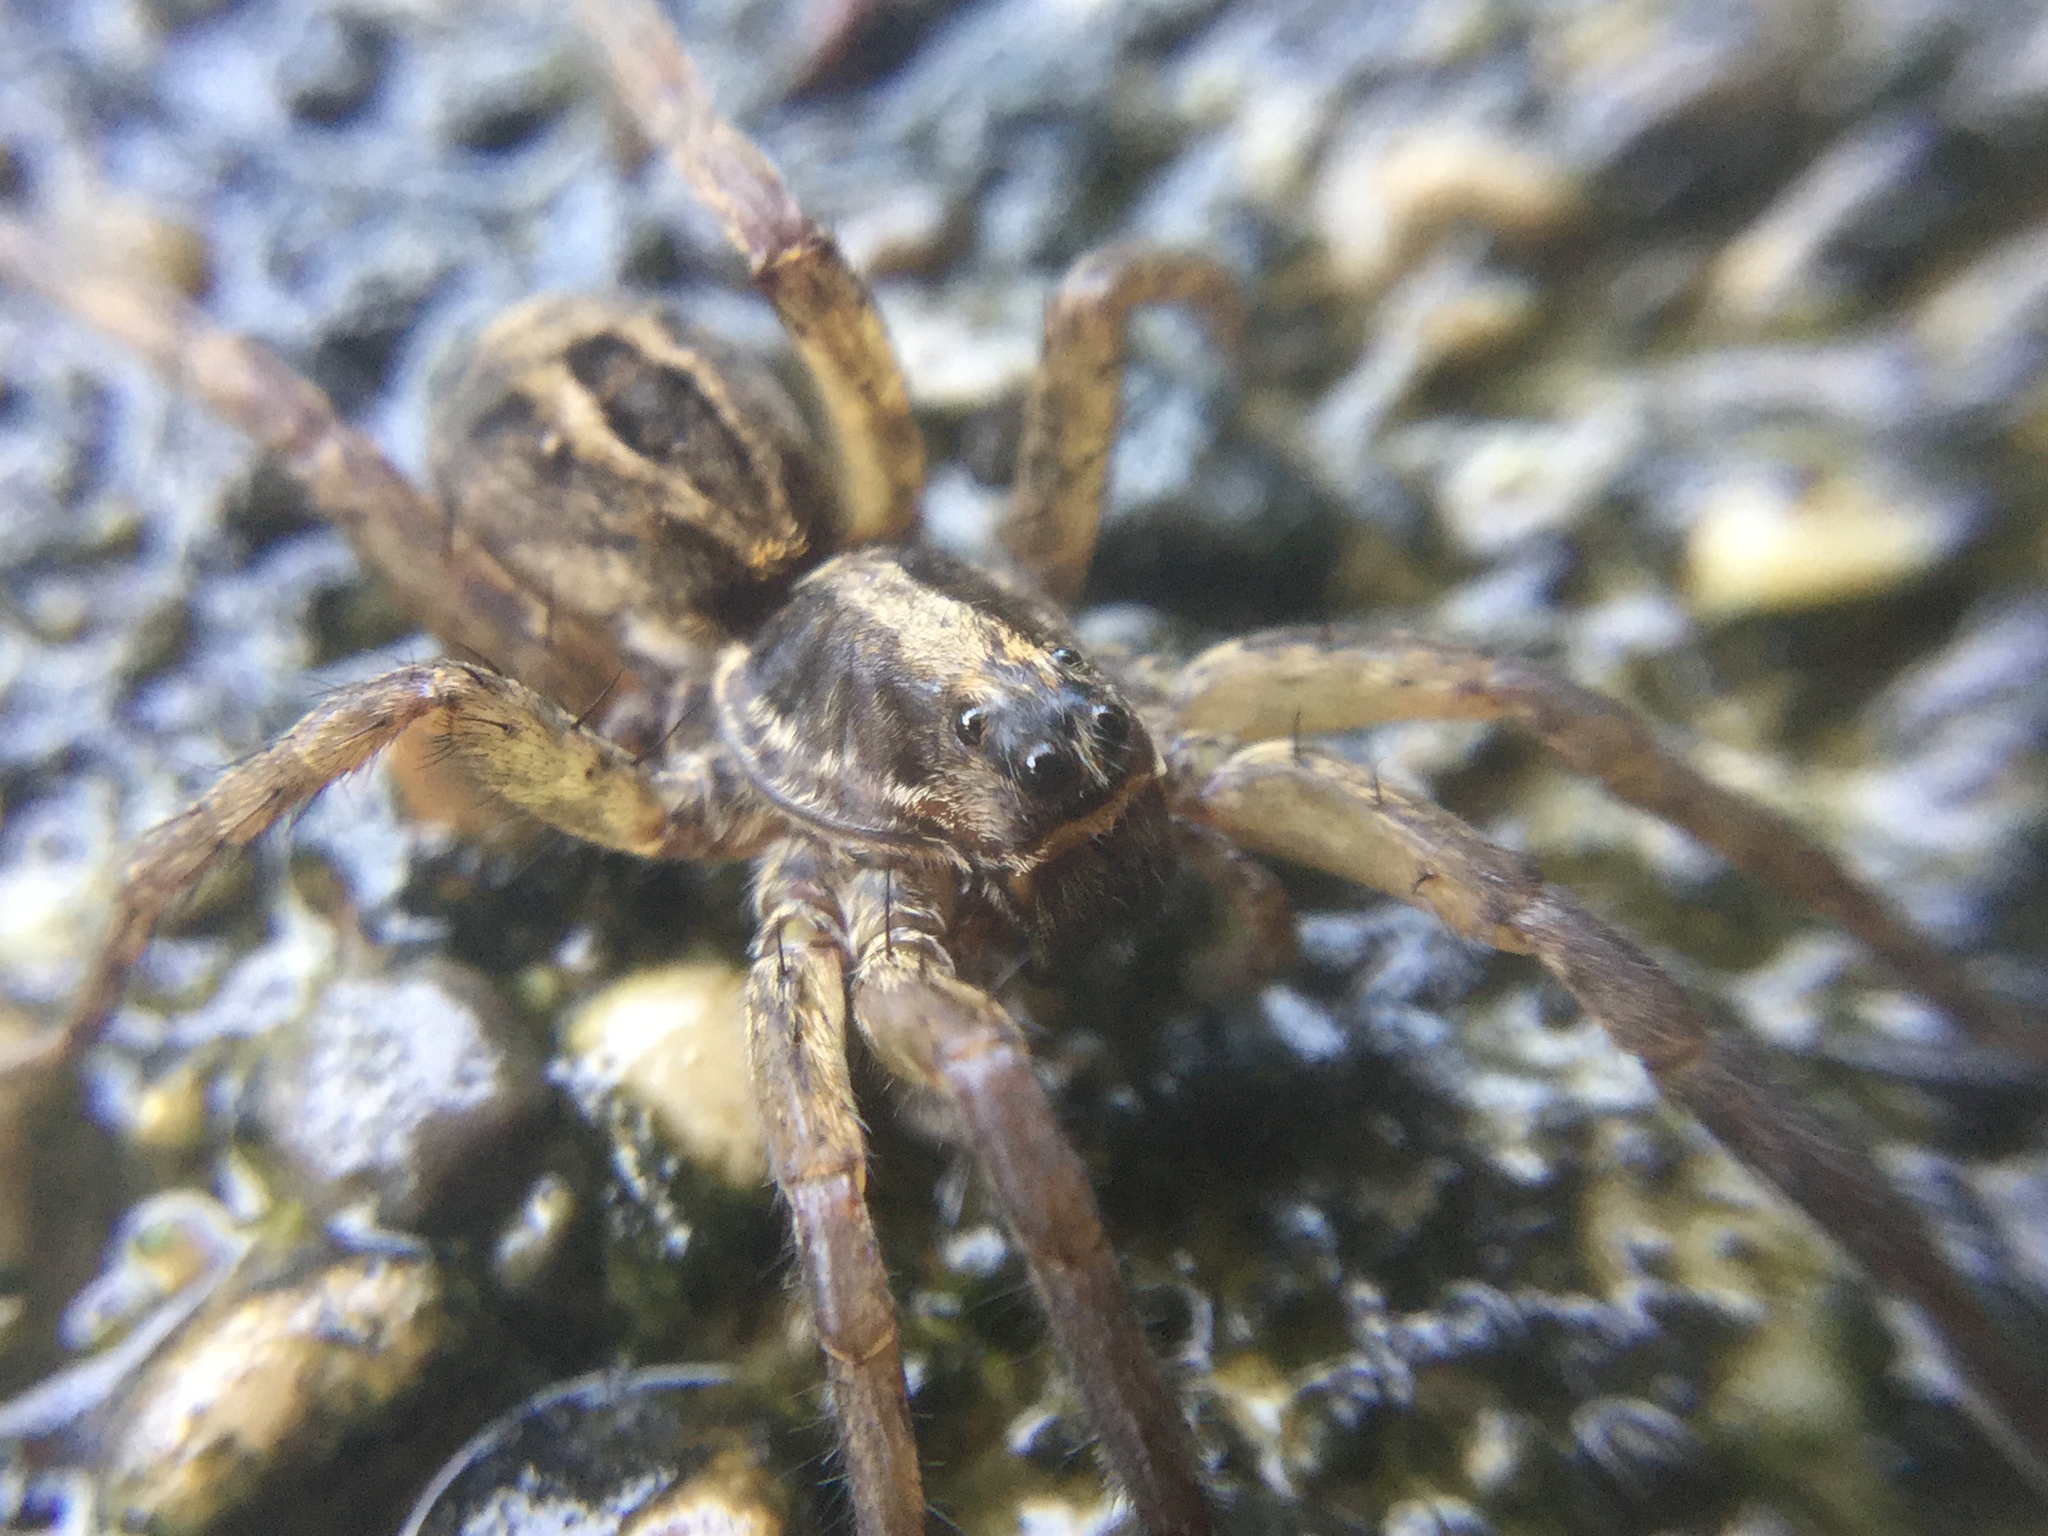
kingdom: Animalia
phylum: Arthropoda
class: Arachnida
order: Araneae
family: Lycosidae
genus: Schizocosa
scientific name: Schizocosa avida
